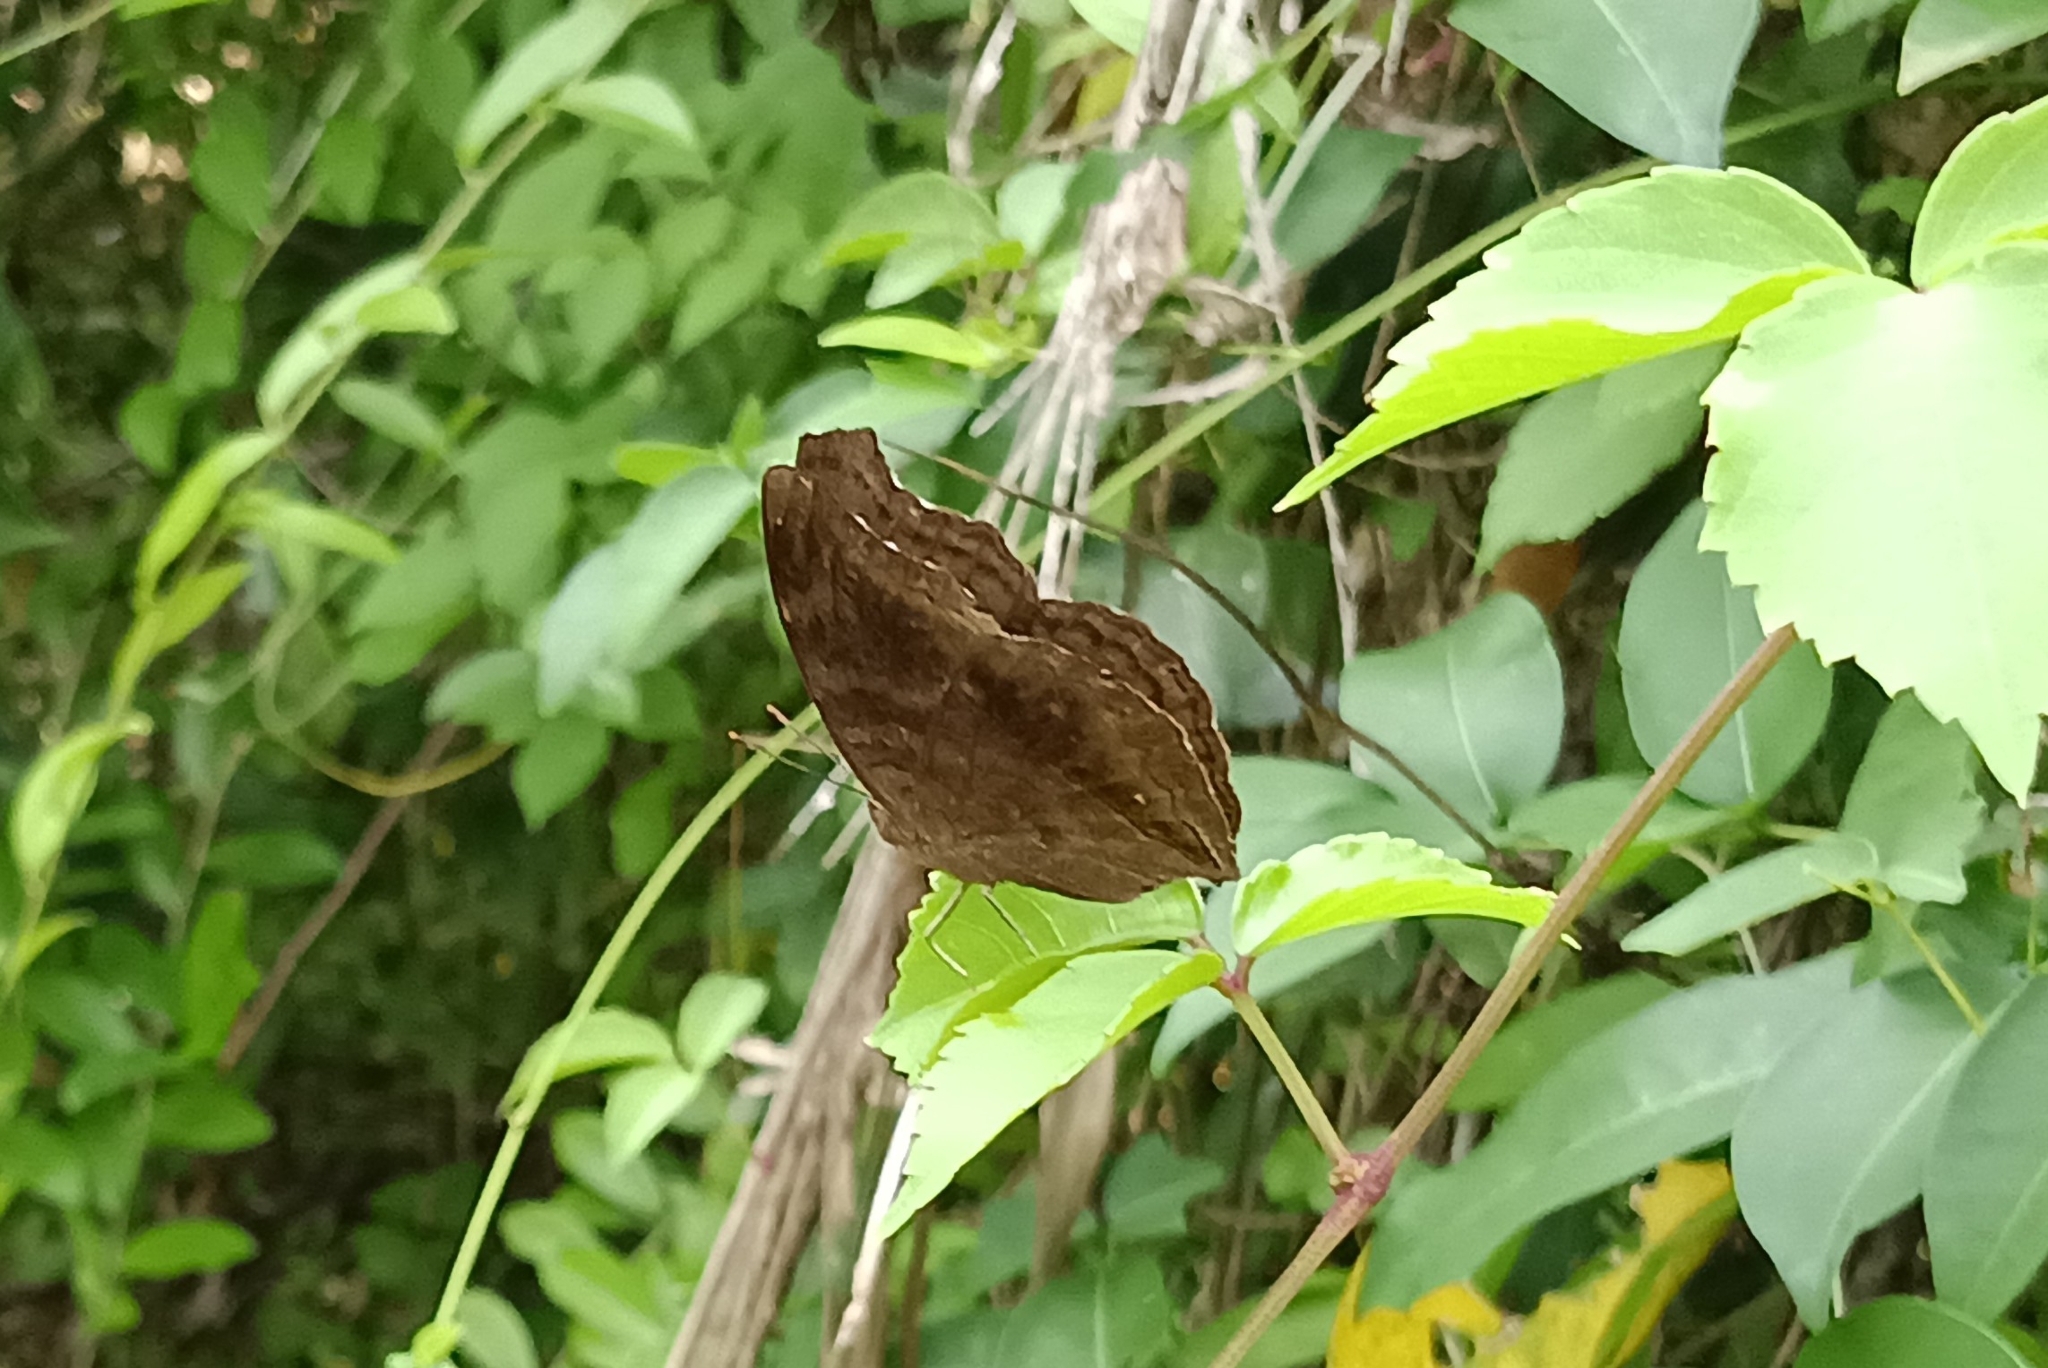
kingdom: Animalia
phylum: Arthropoda
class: Insecta
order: Lepidoptera
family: Nymphalidae
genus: Junonia
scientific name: Junonia iphita
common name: Chocolate pansy
